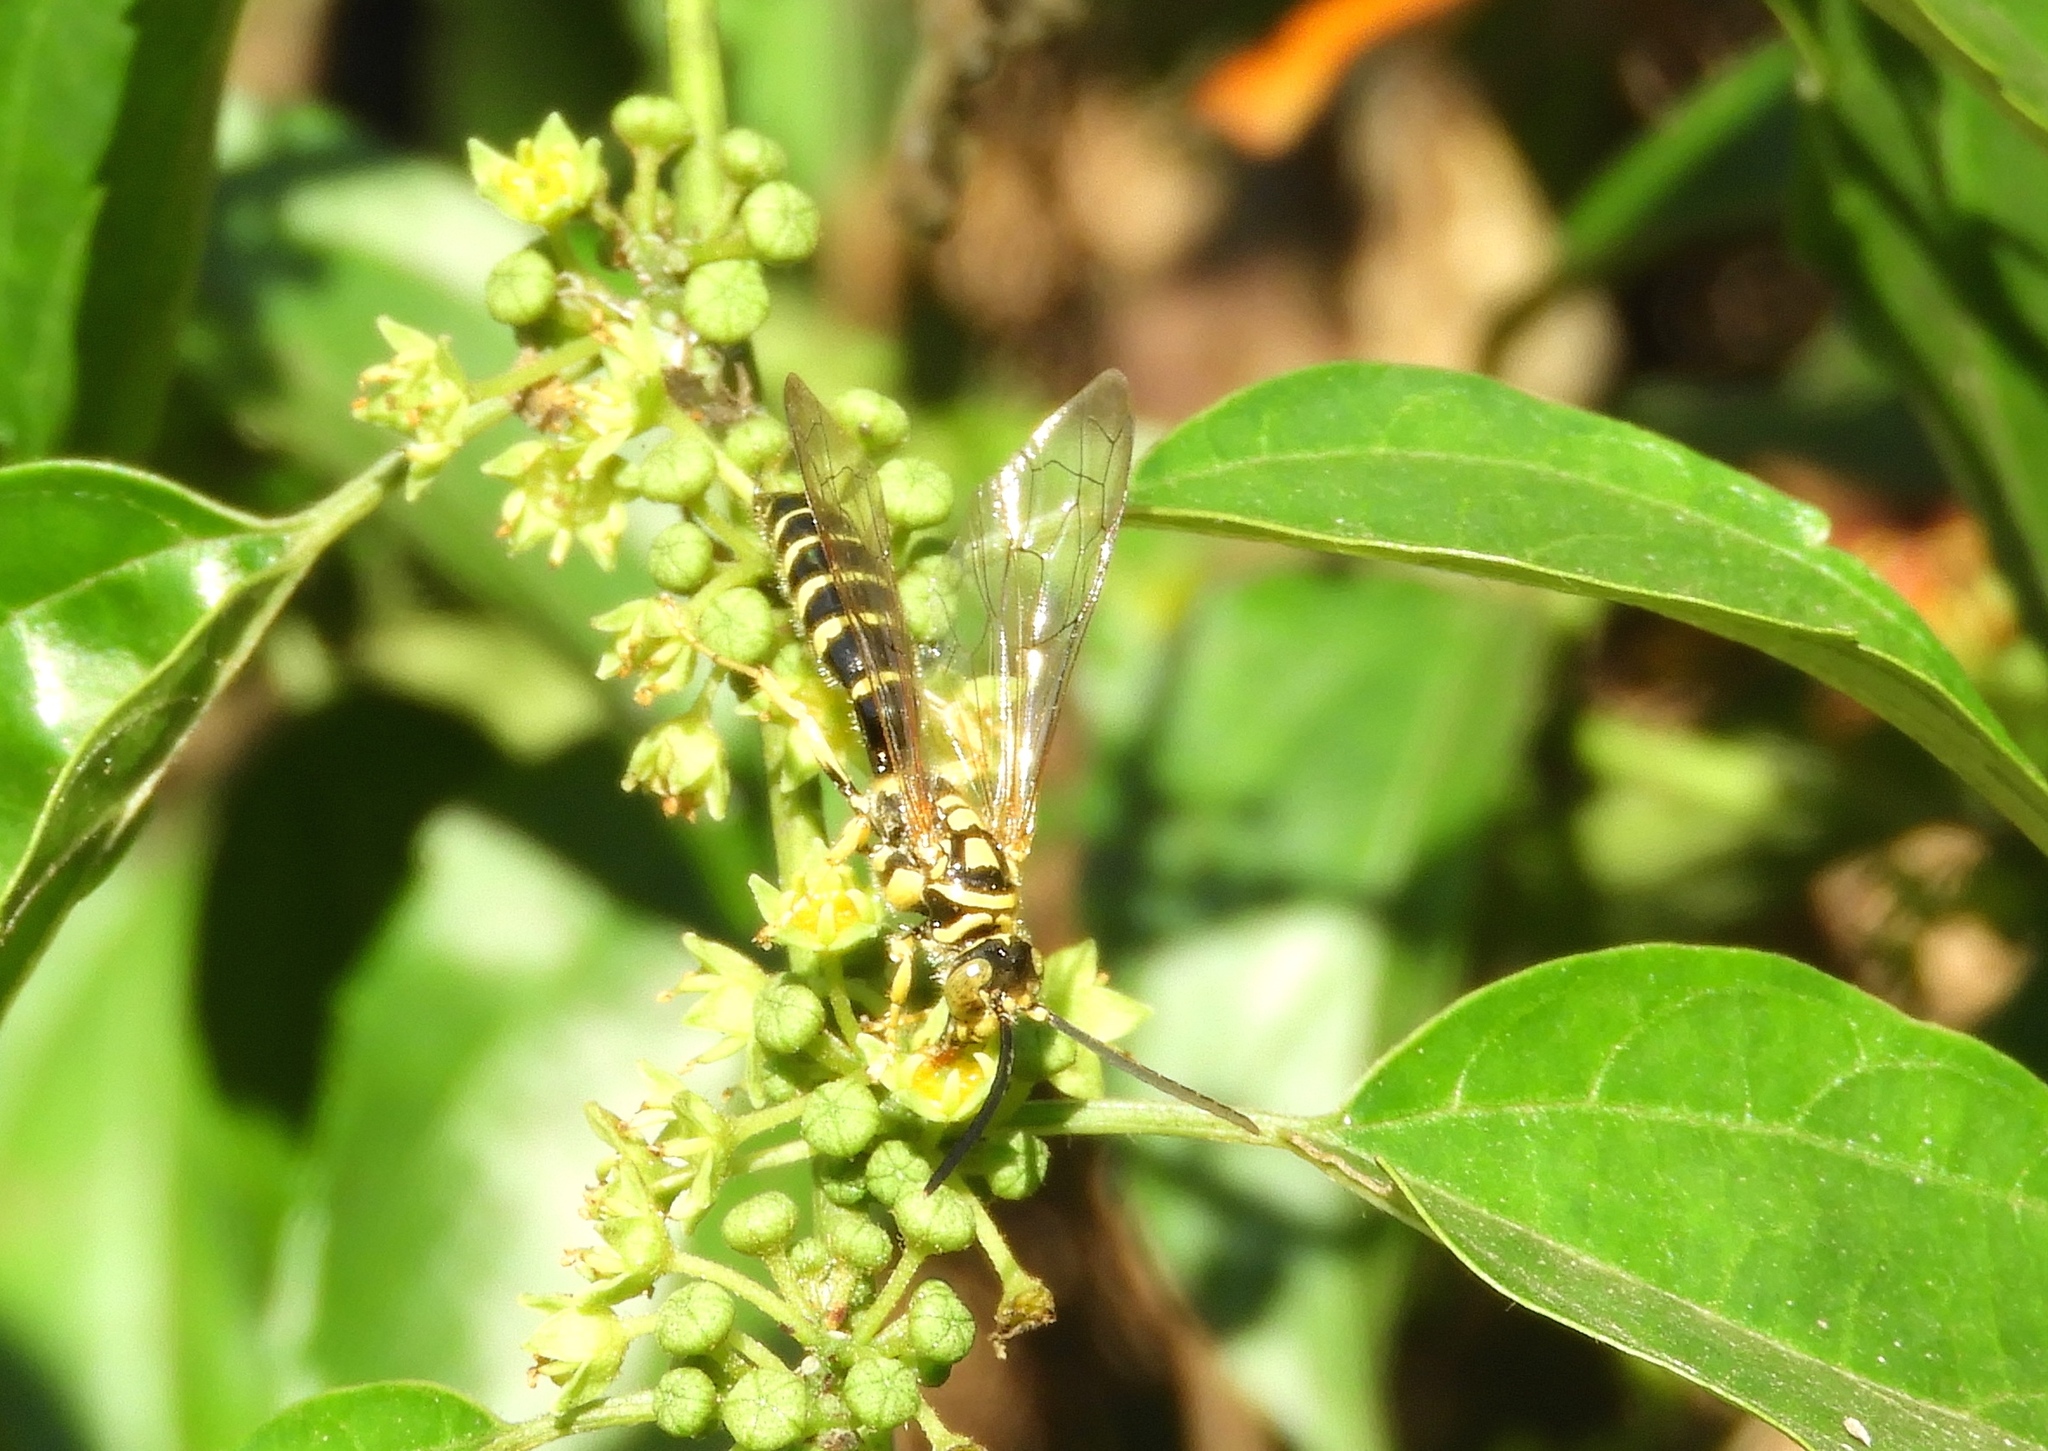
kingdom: Animalia
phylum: Arthropoda
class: Insecta
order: Hymenoptera
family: Tiphiidae
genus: Myzinum
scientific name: Myzinum
